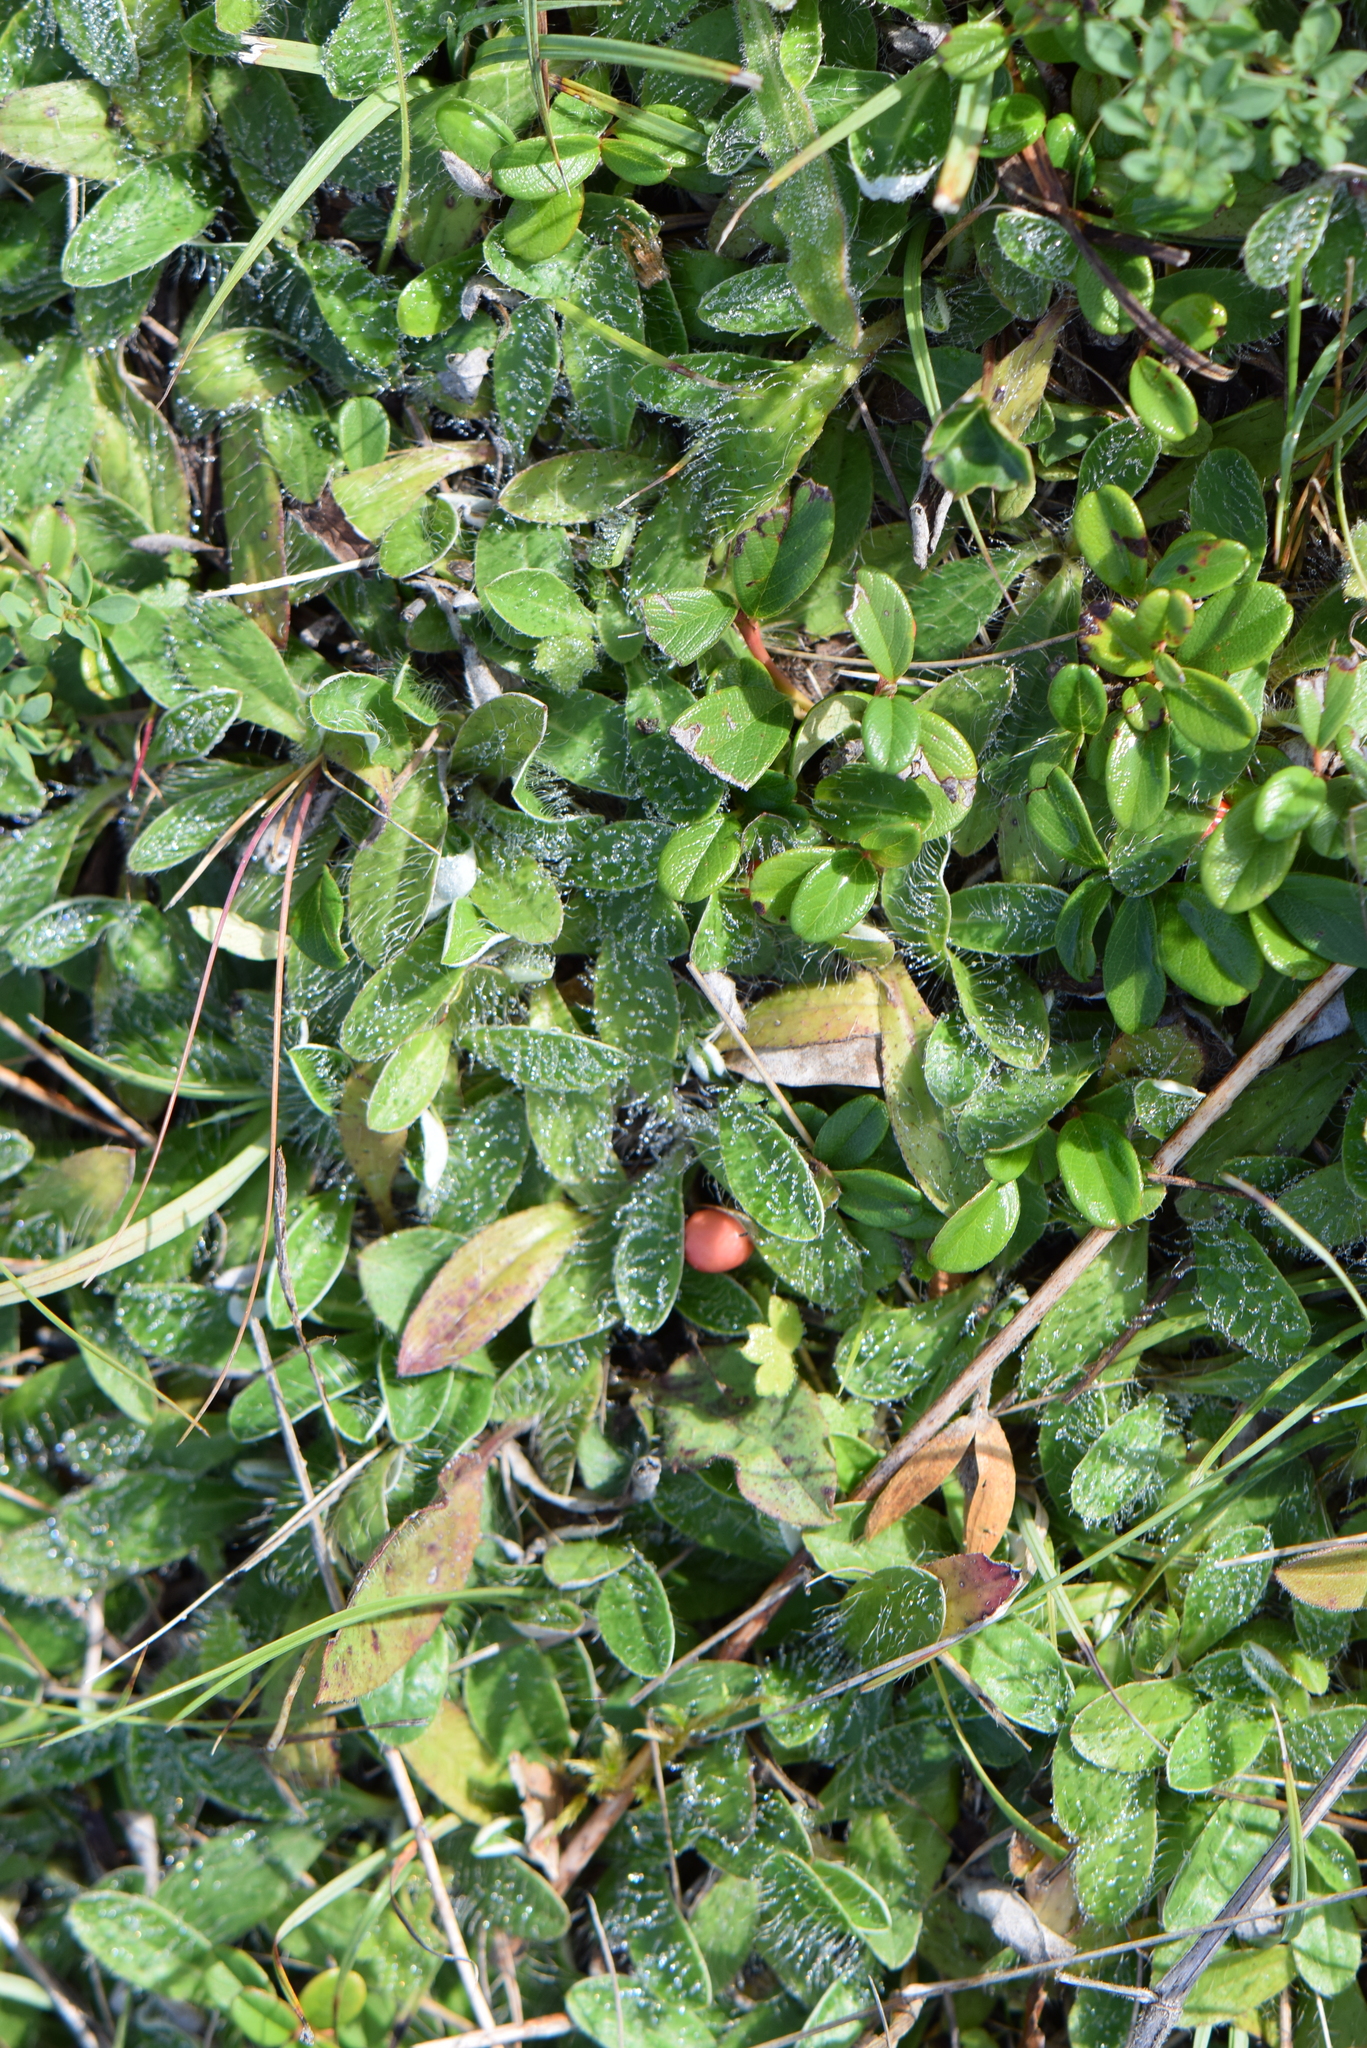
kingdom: Plantae
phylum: Tracheophyta
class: Magnoliopsida
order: Asterales
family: Asteraceae
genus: Pilosella
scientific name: Pilosella officinarum
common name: Mouse-ear hawkweed
